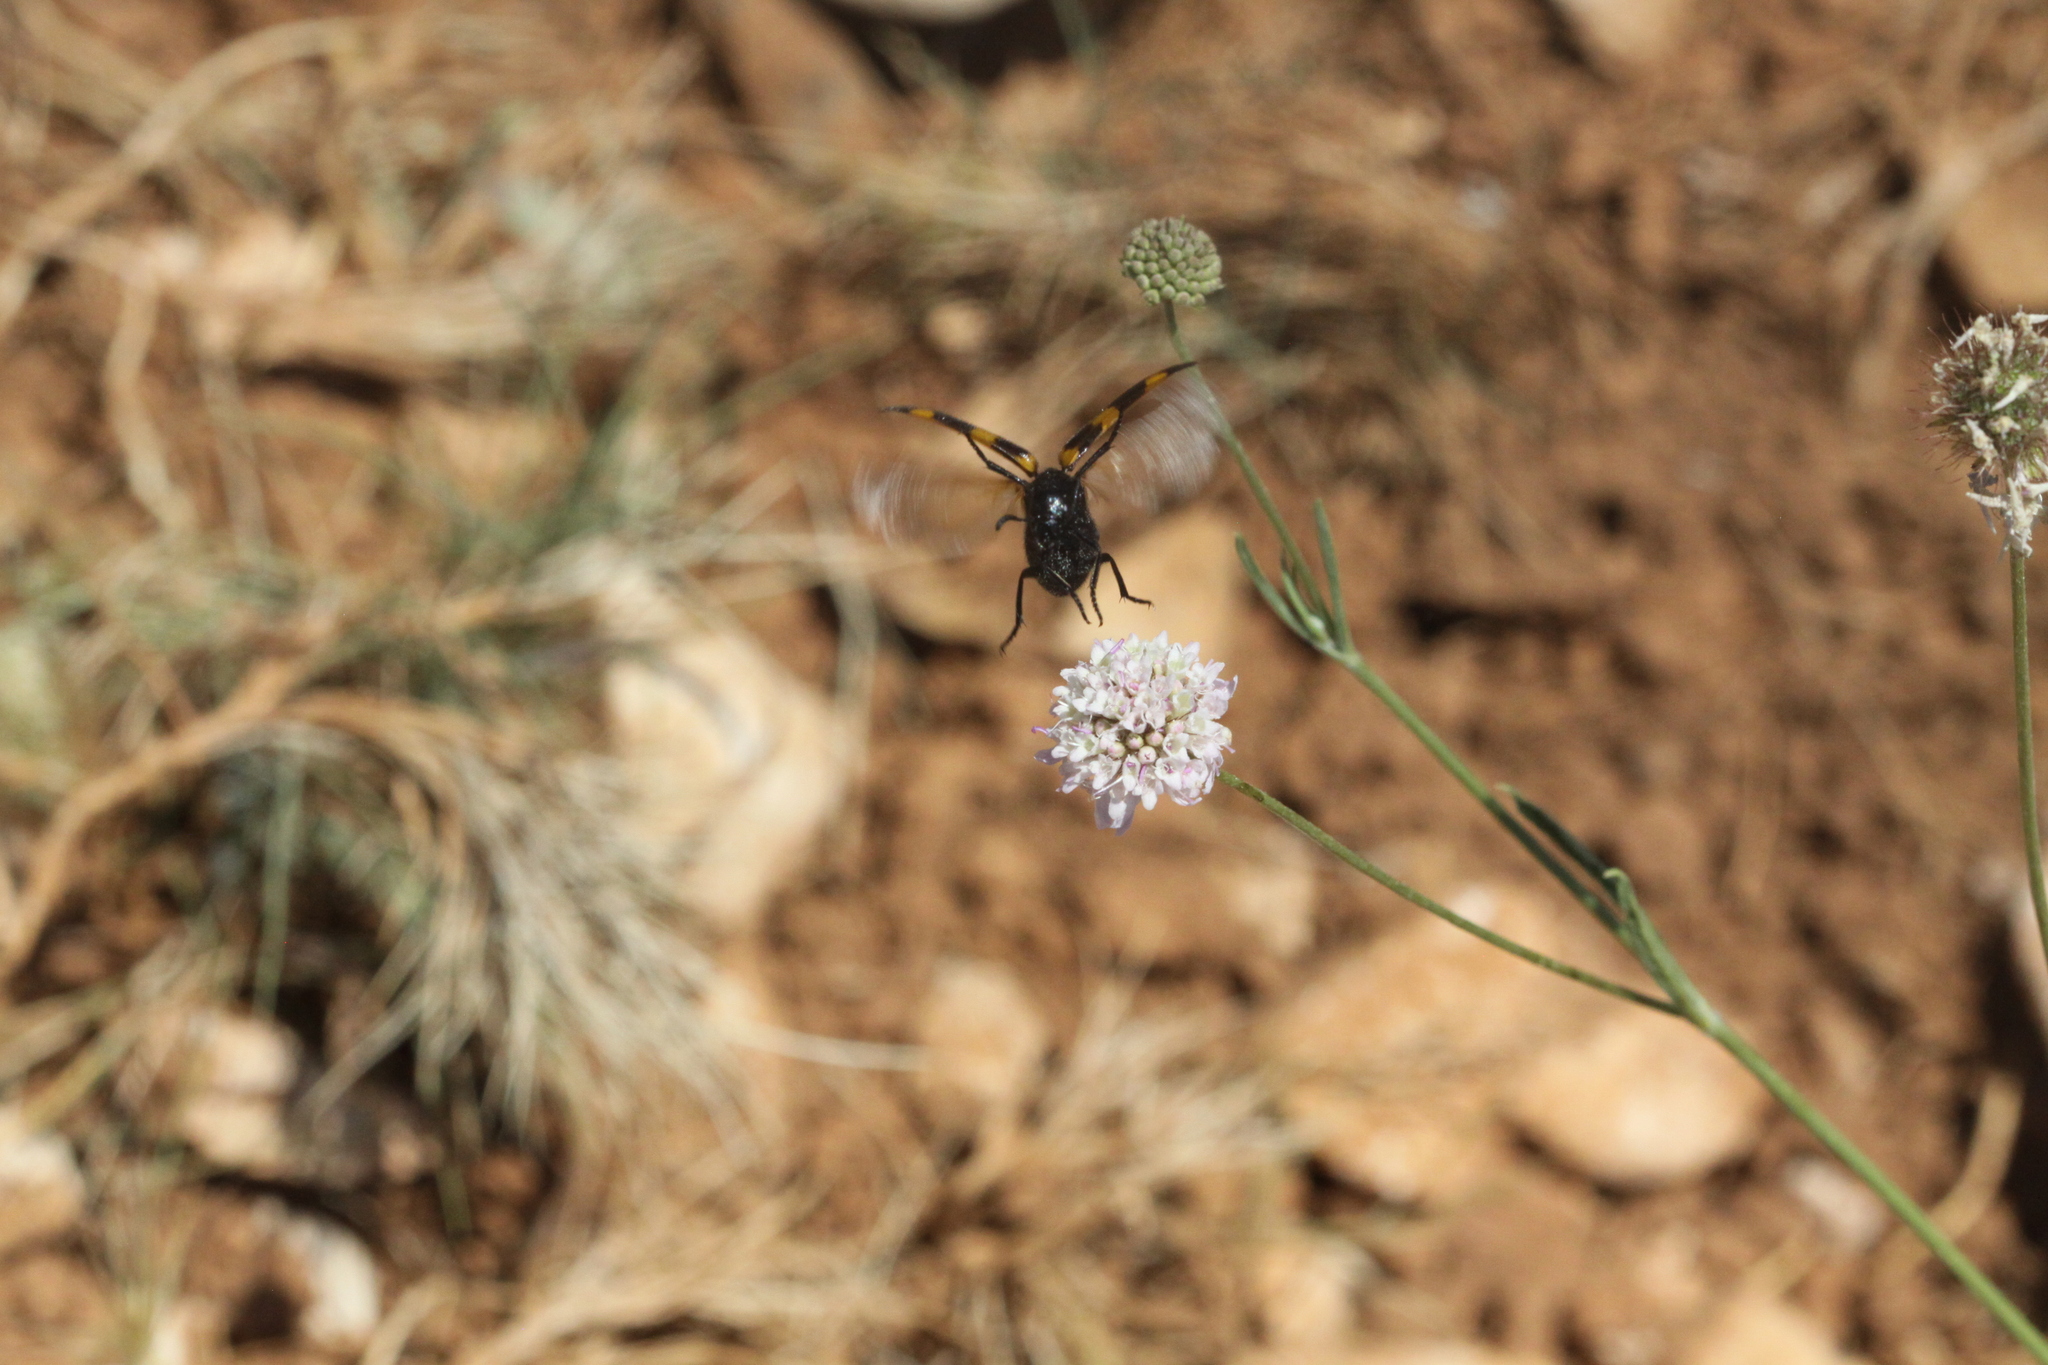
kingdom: Animalia
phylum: Arthropoda
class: Insecta
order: Coleoptera
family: Meloidae
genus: Mylabris
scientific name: Mylabris variabilis
